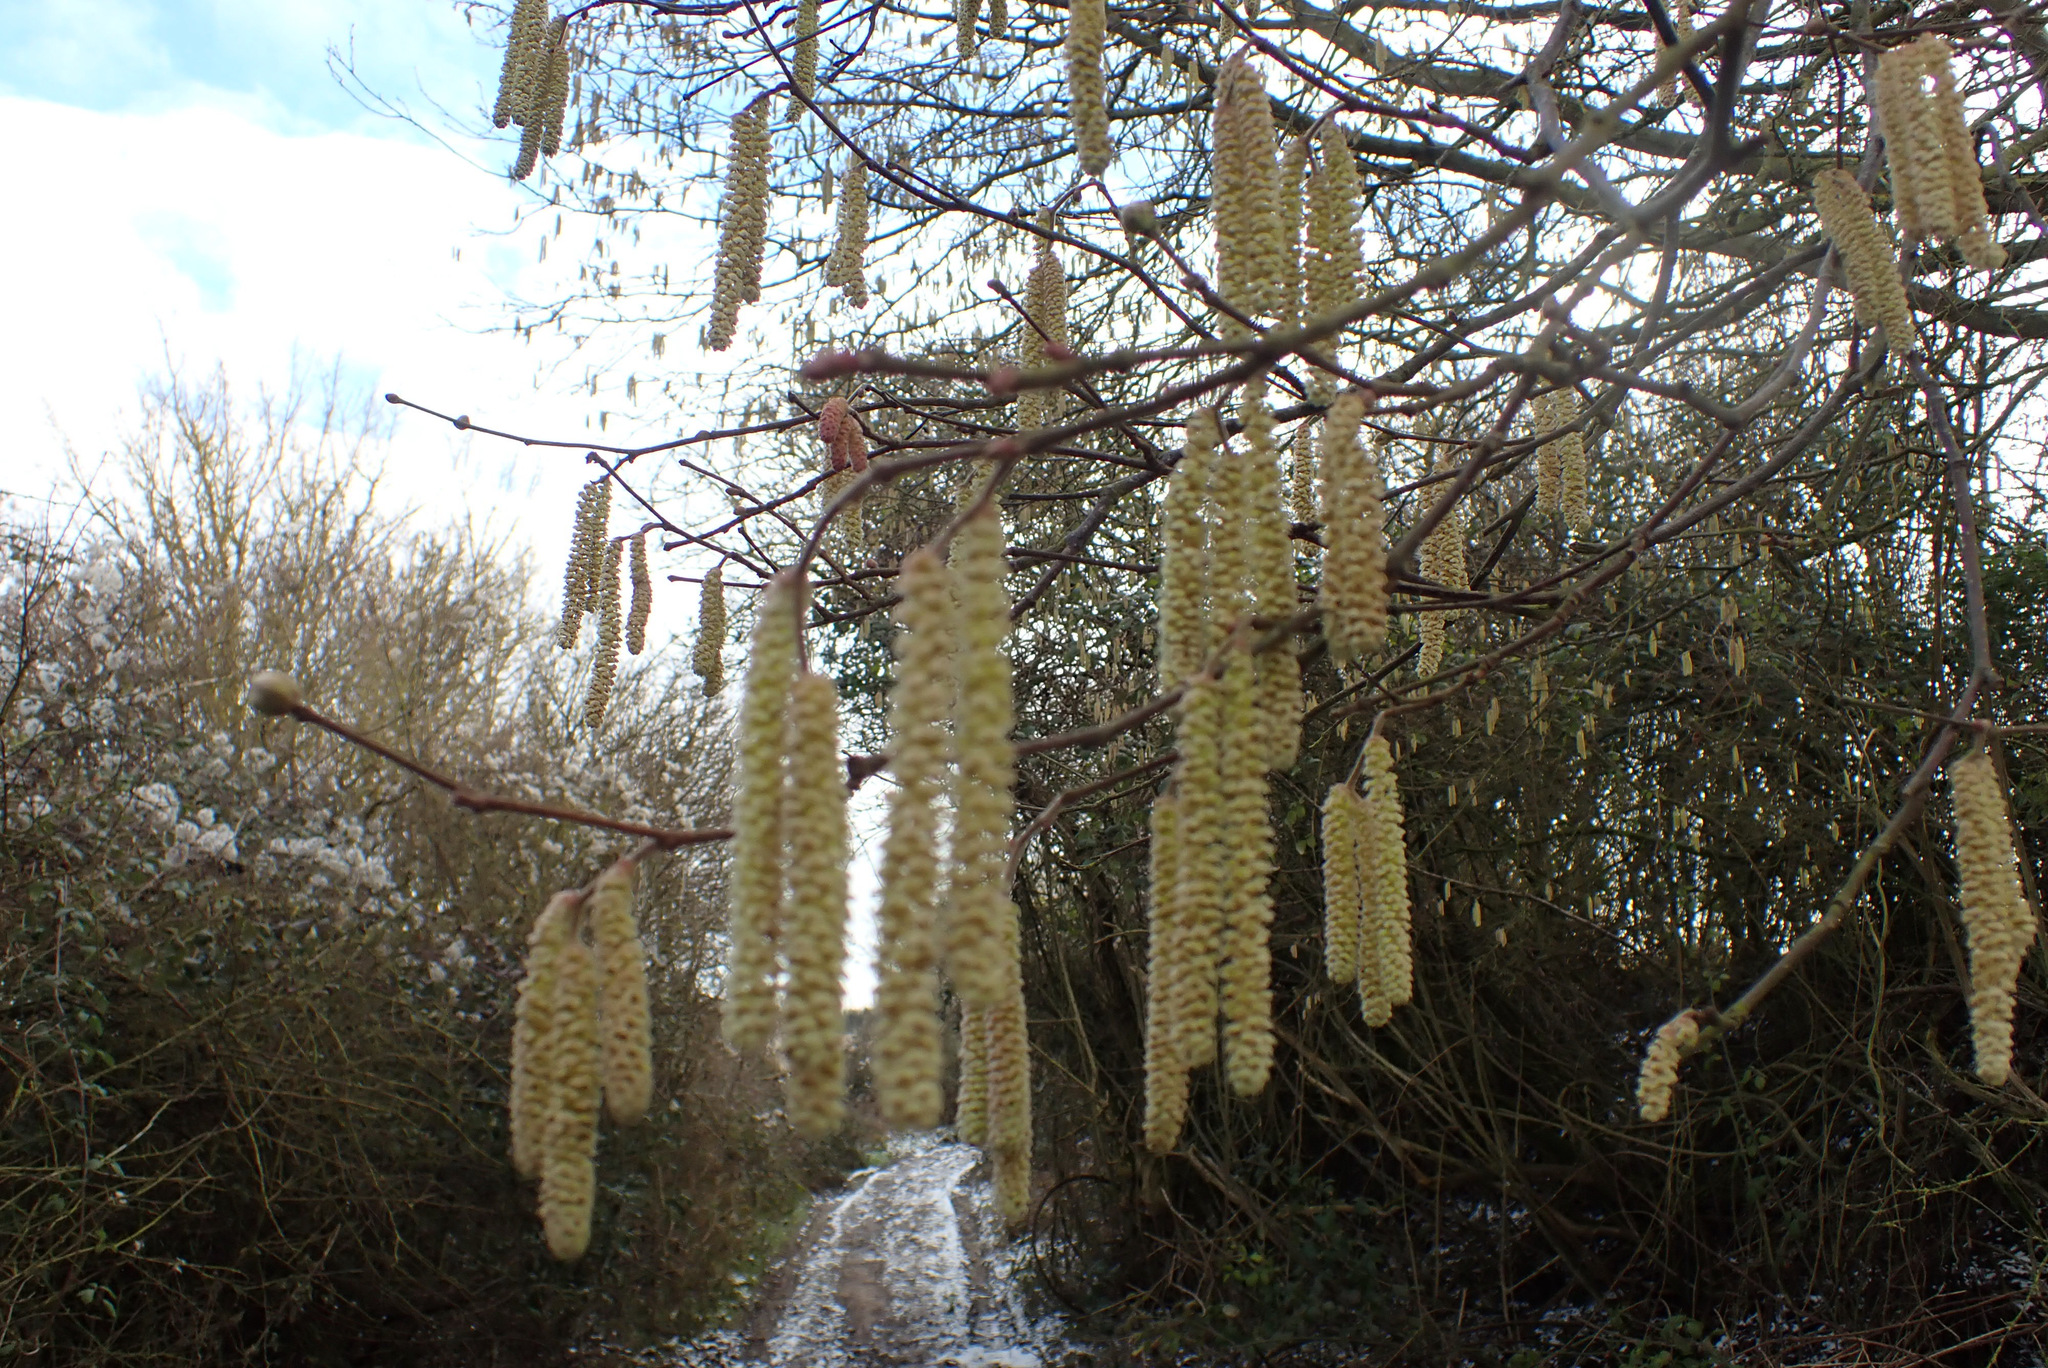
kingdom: Plantae
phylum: Tracheophyta
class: Magnoliopsida
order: Fagales
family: Betulaceae
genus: Corylus
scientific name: Corylus avellana
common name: European hazel
